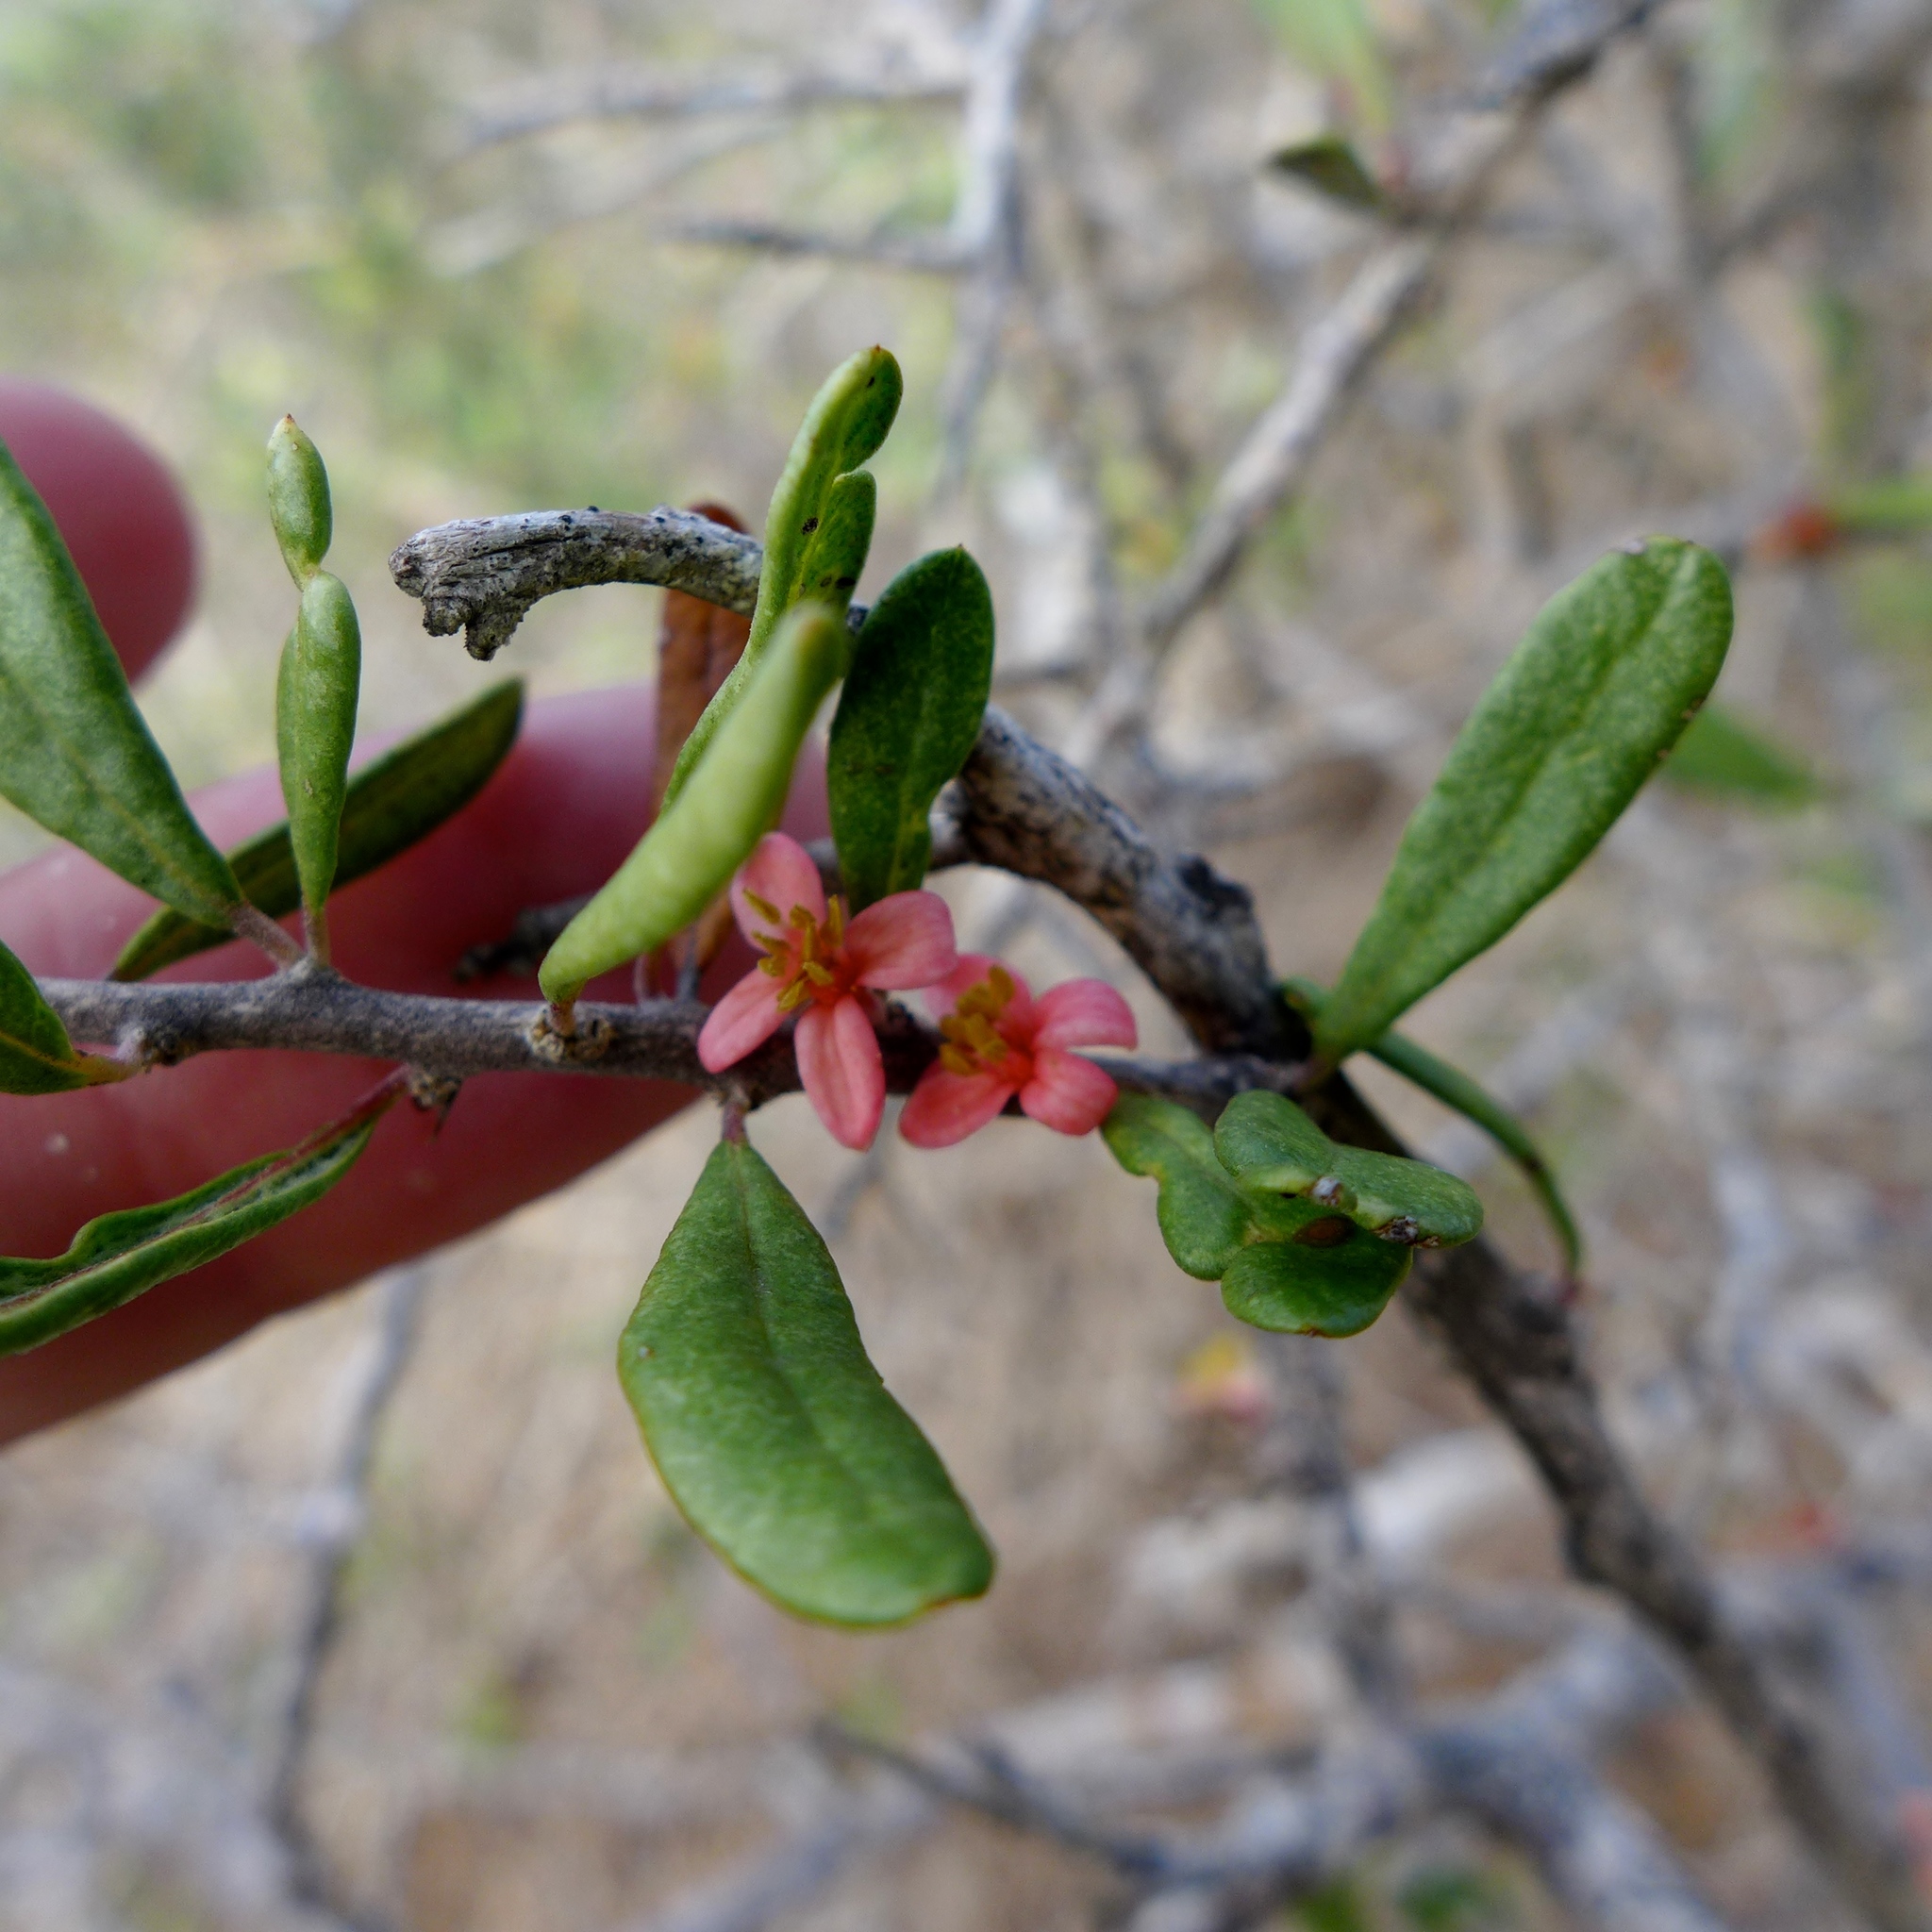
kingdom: Plantae
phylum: Tracheophyta
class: Magnoliopsida
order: Sapindales
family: Simaroubaceae
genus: Castela
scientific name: Castela galapageia
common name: Bitterbush
